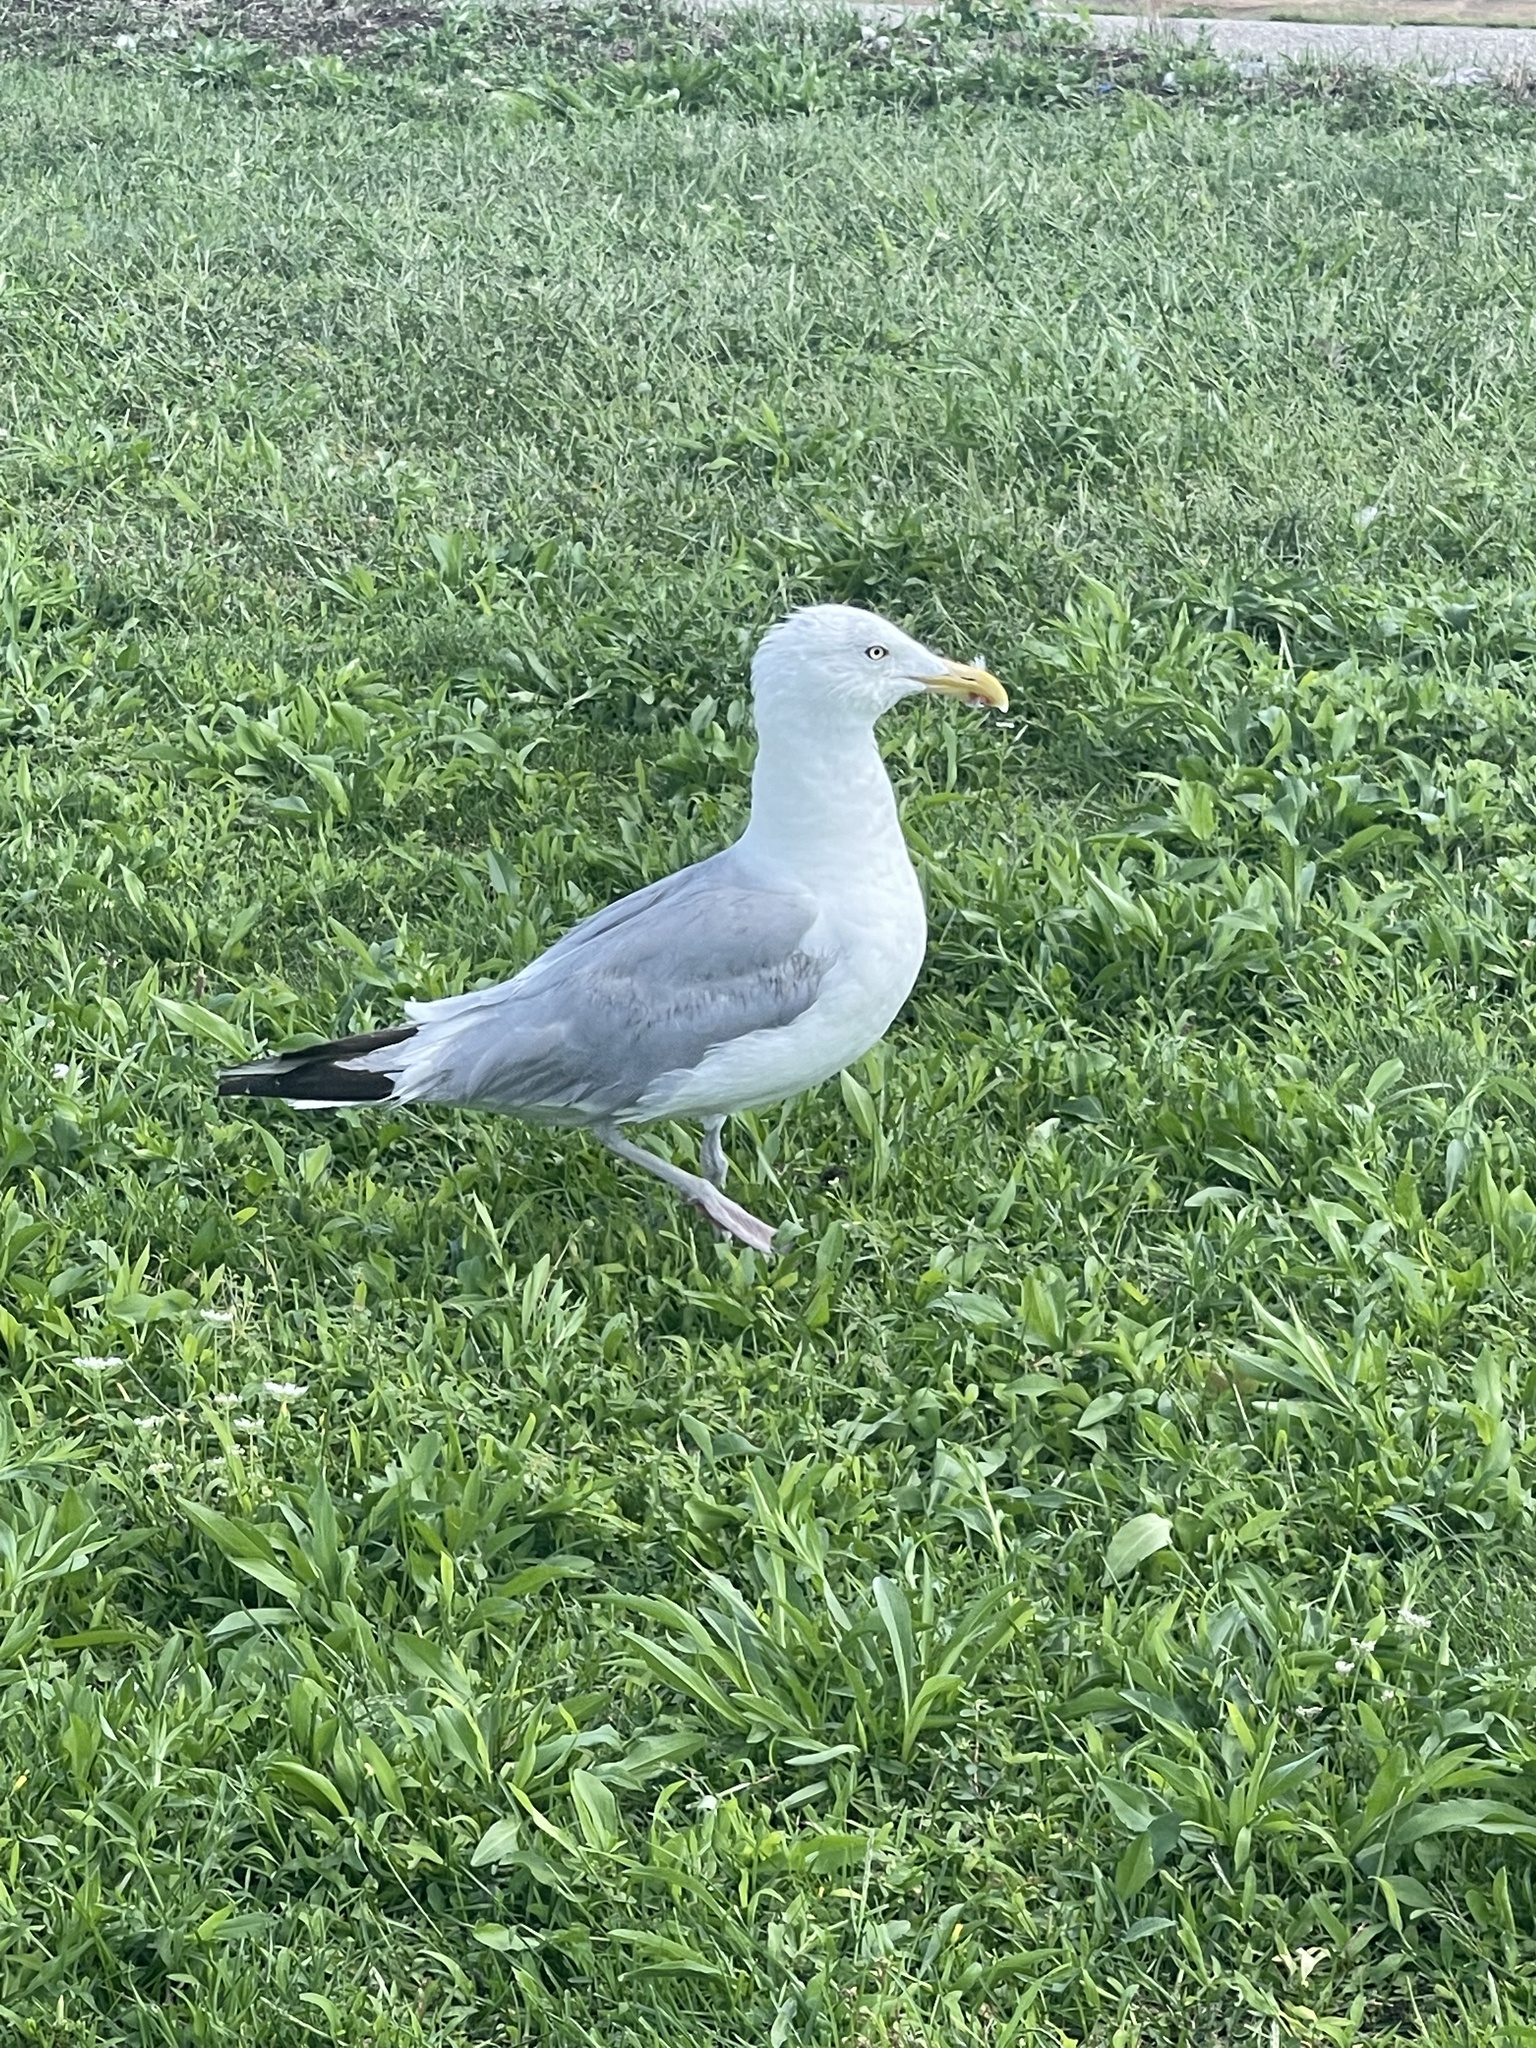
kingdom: Animalia
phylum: Chordata
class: Aves
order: Charadriiformes
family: Laridae
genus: Larus
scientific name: Larus argentatus
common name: Herring gull
